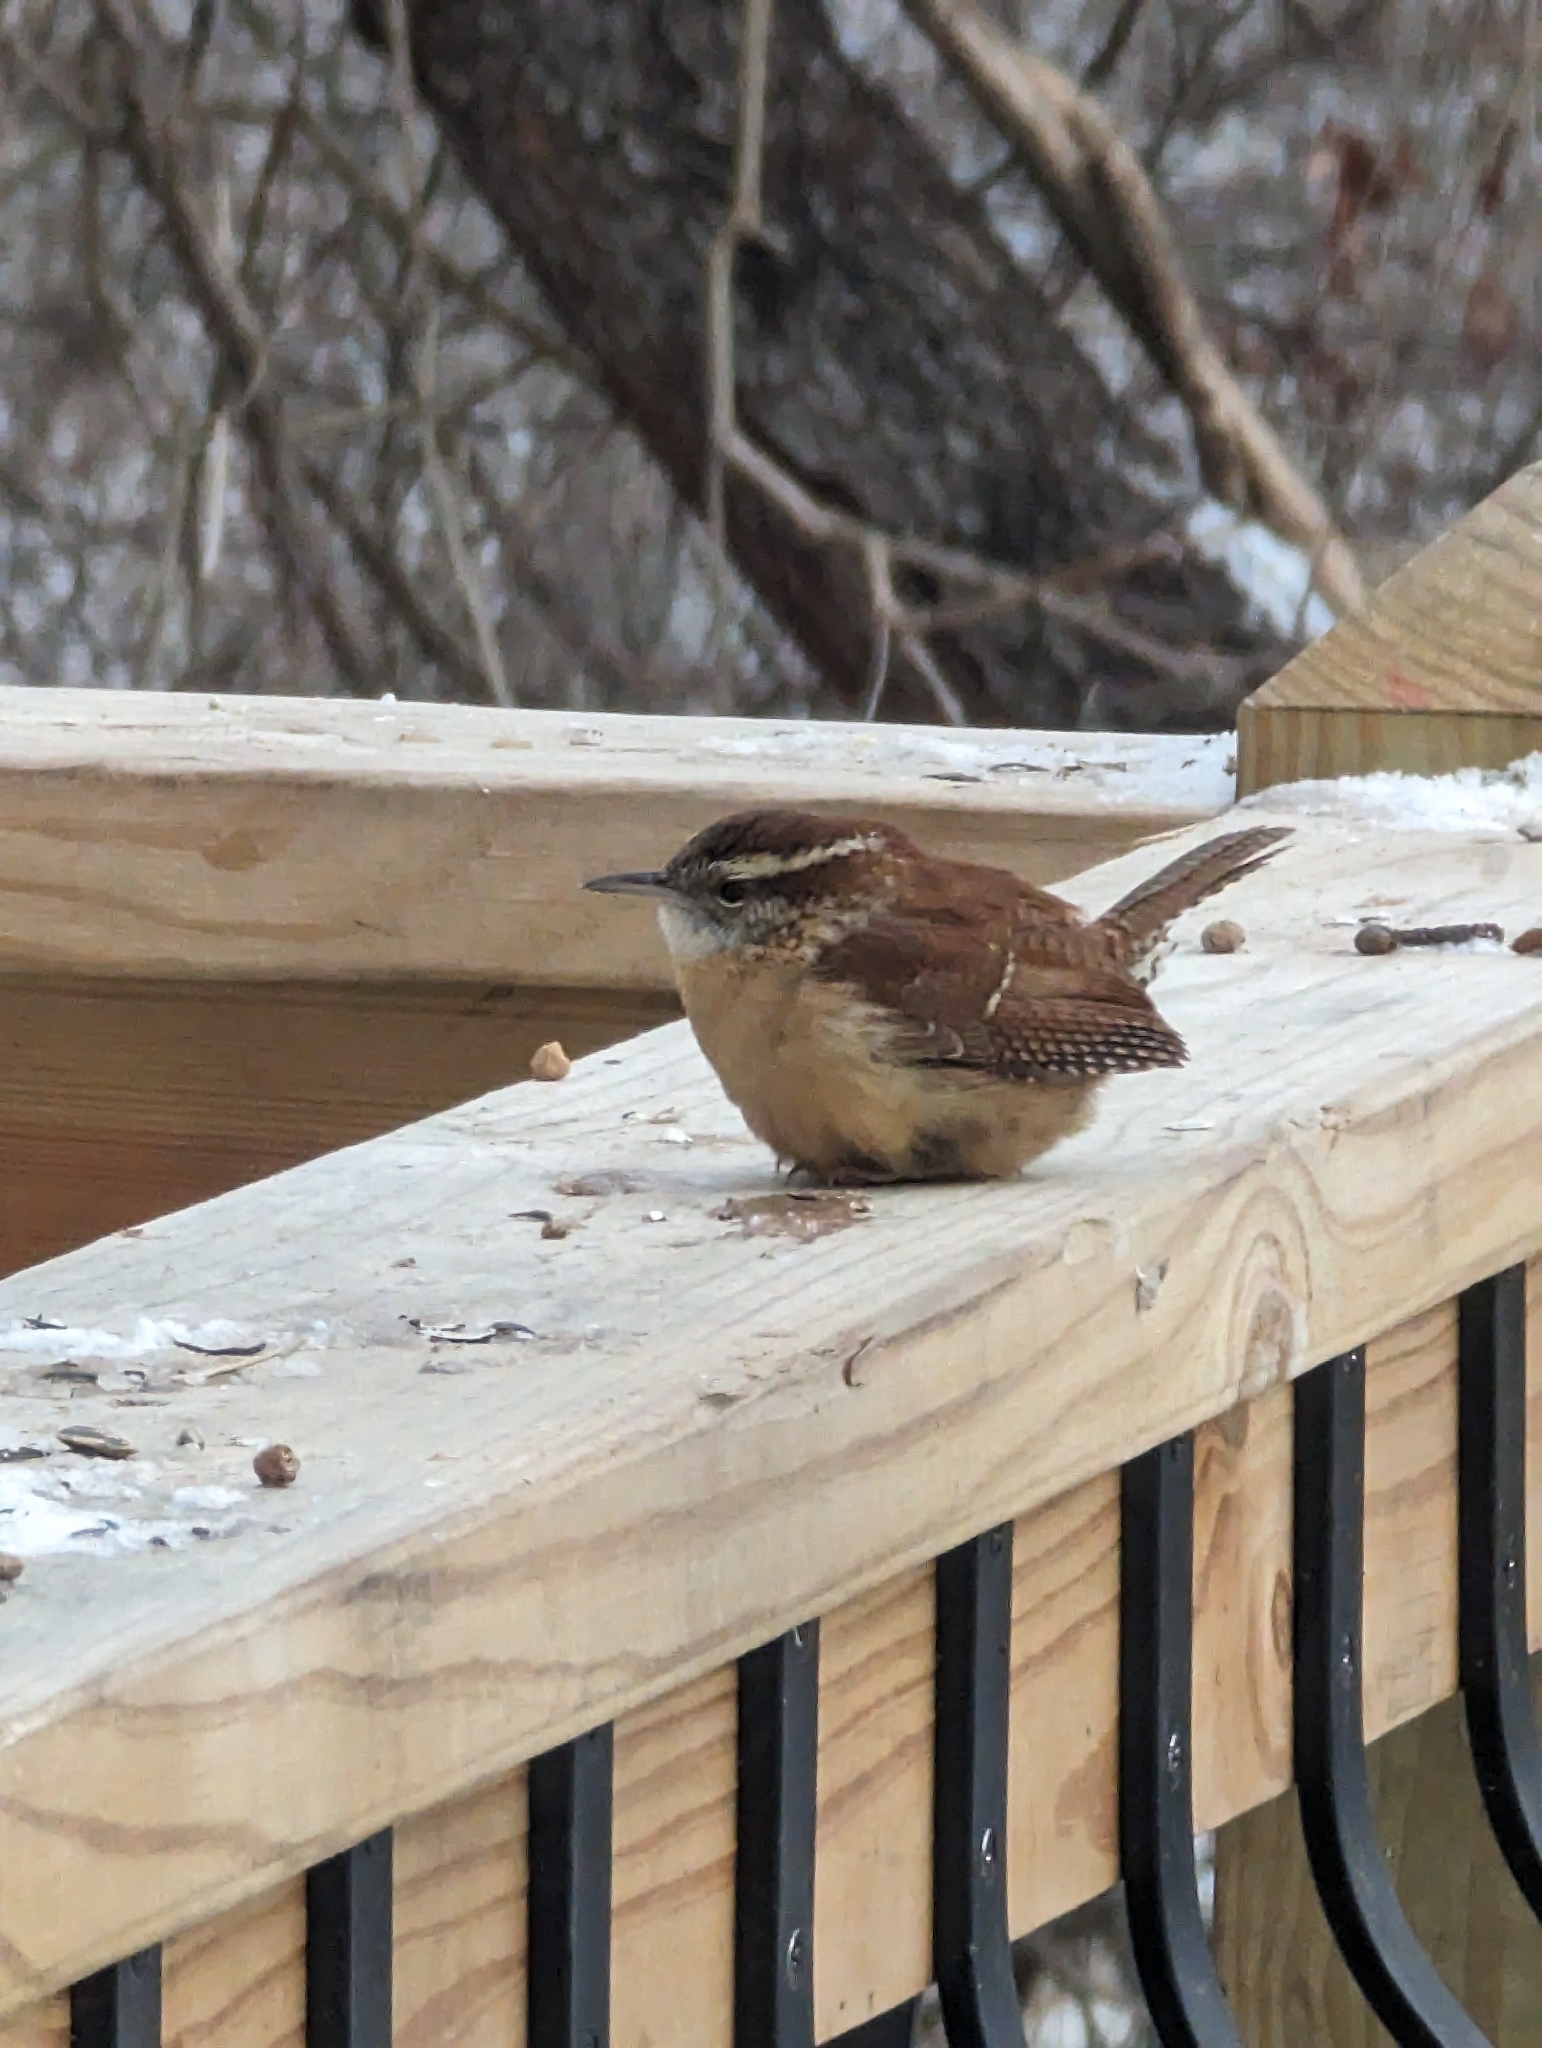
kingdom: Animalia
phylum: Chordata
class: Aves
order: Passeriformes
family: Troglodytidae
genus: Thryothorus
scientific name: Thryothorus ludovicianus
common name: Carolina wren
